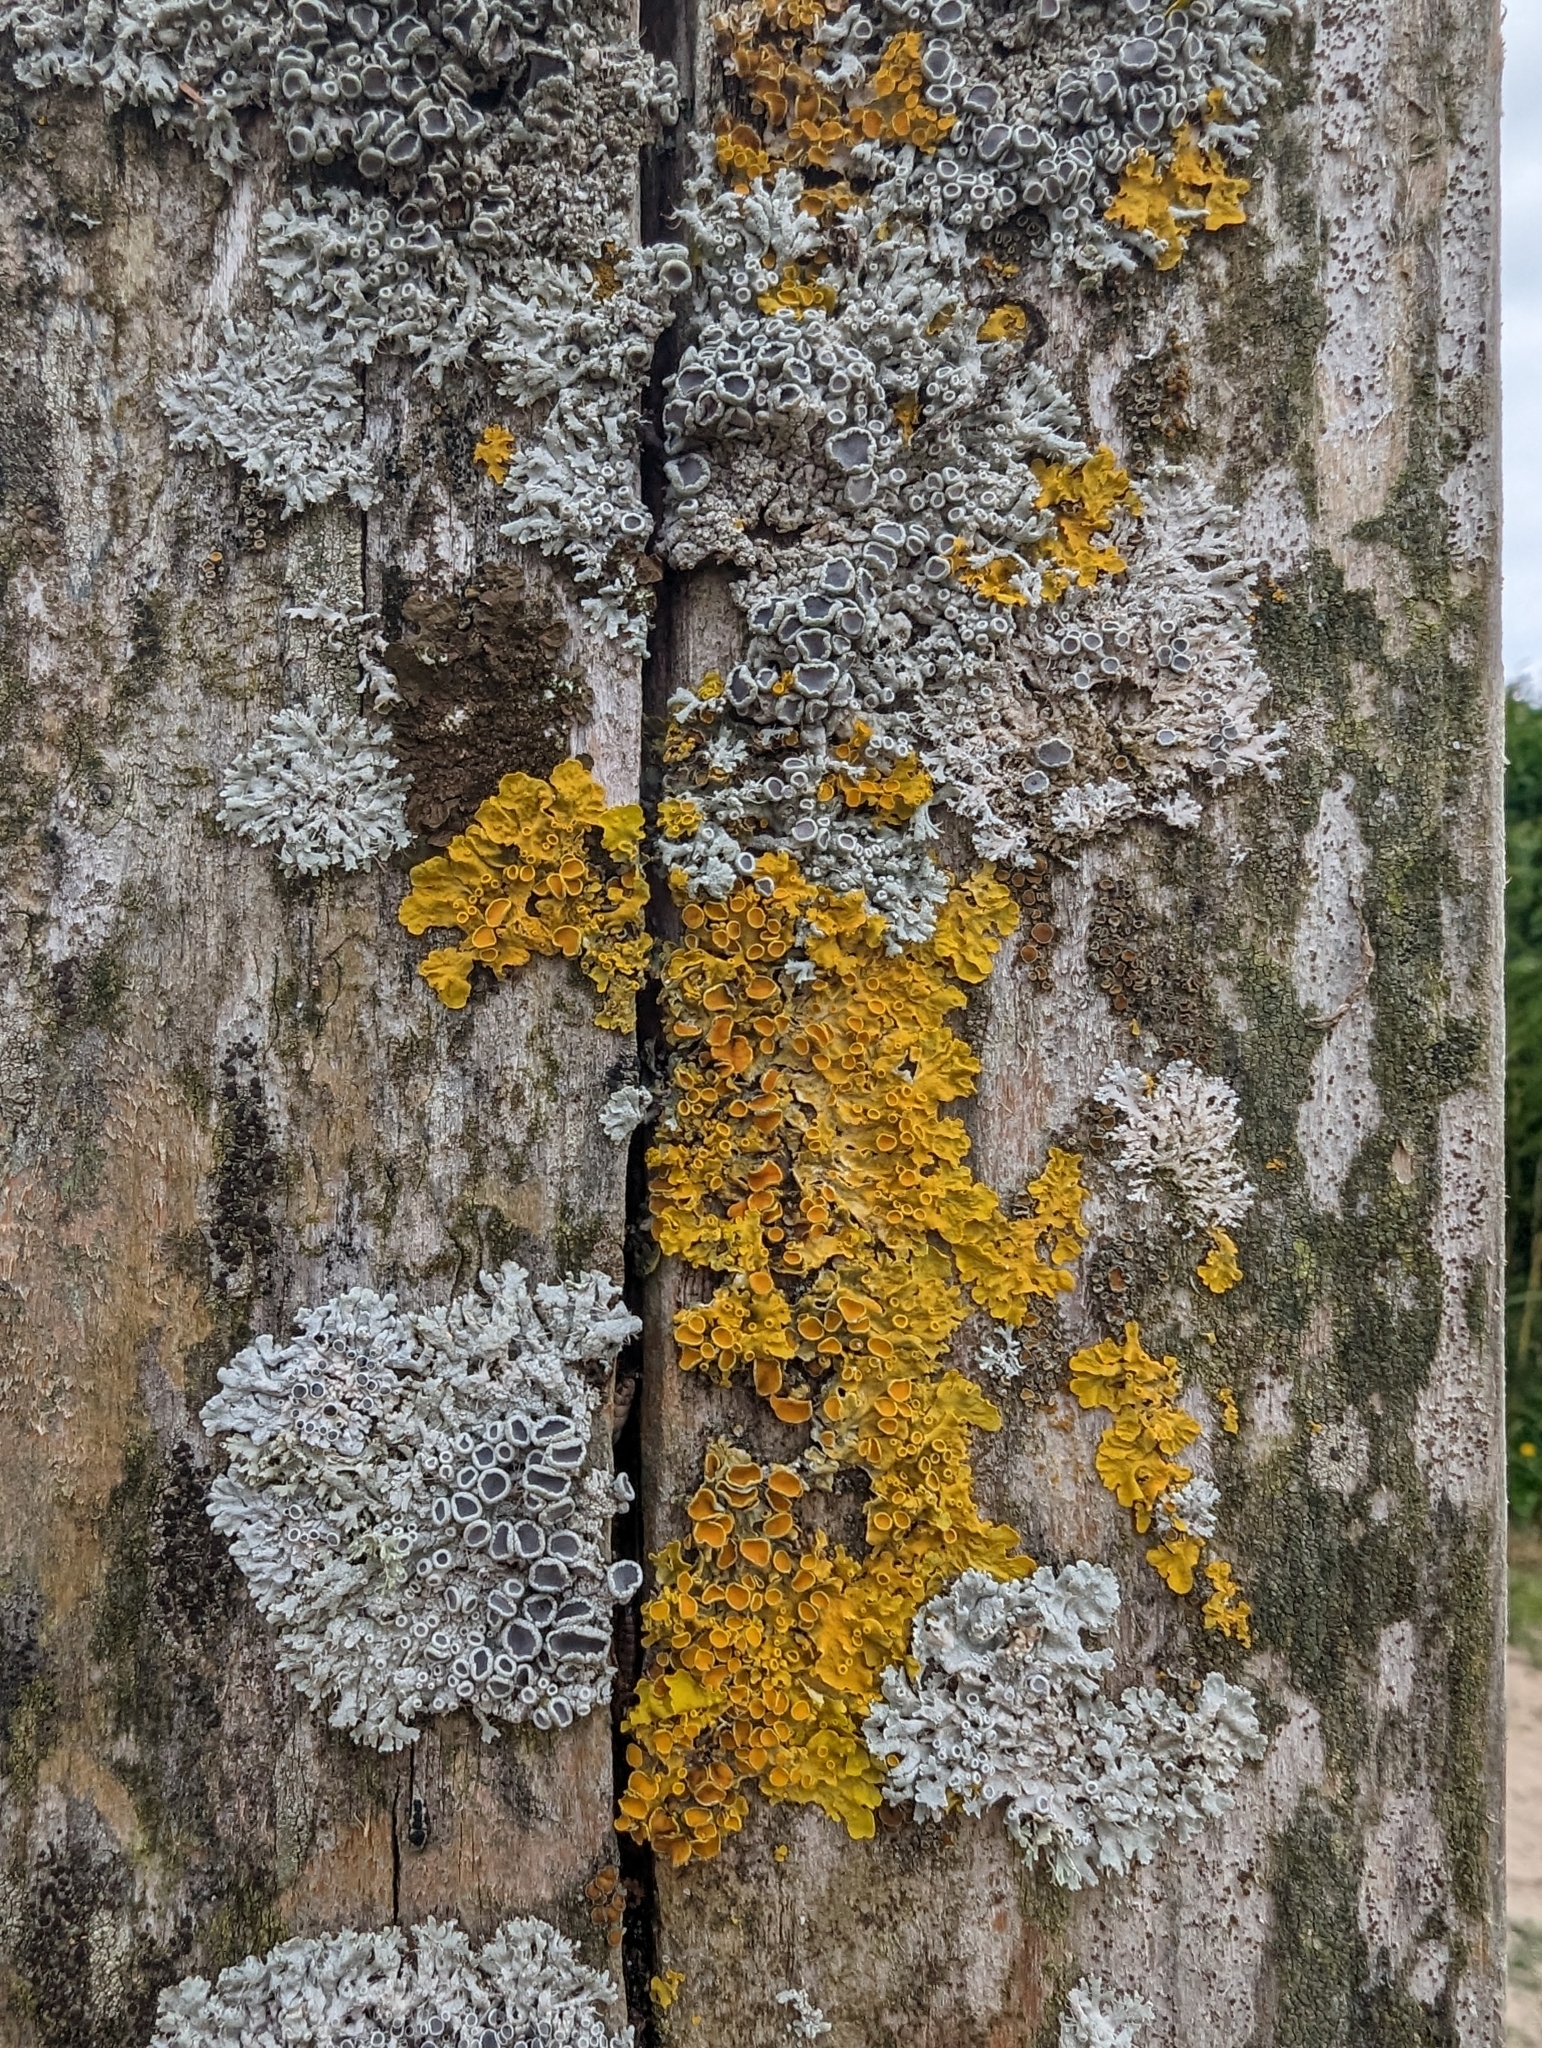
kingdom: Fungi
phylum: Ascomycota
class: Lecanoromycetes
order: Teloschistales
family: Teloschistaceae
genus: Xanthoria
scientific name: Xanthoria parietina
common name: Common orange lichen
